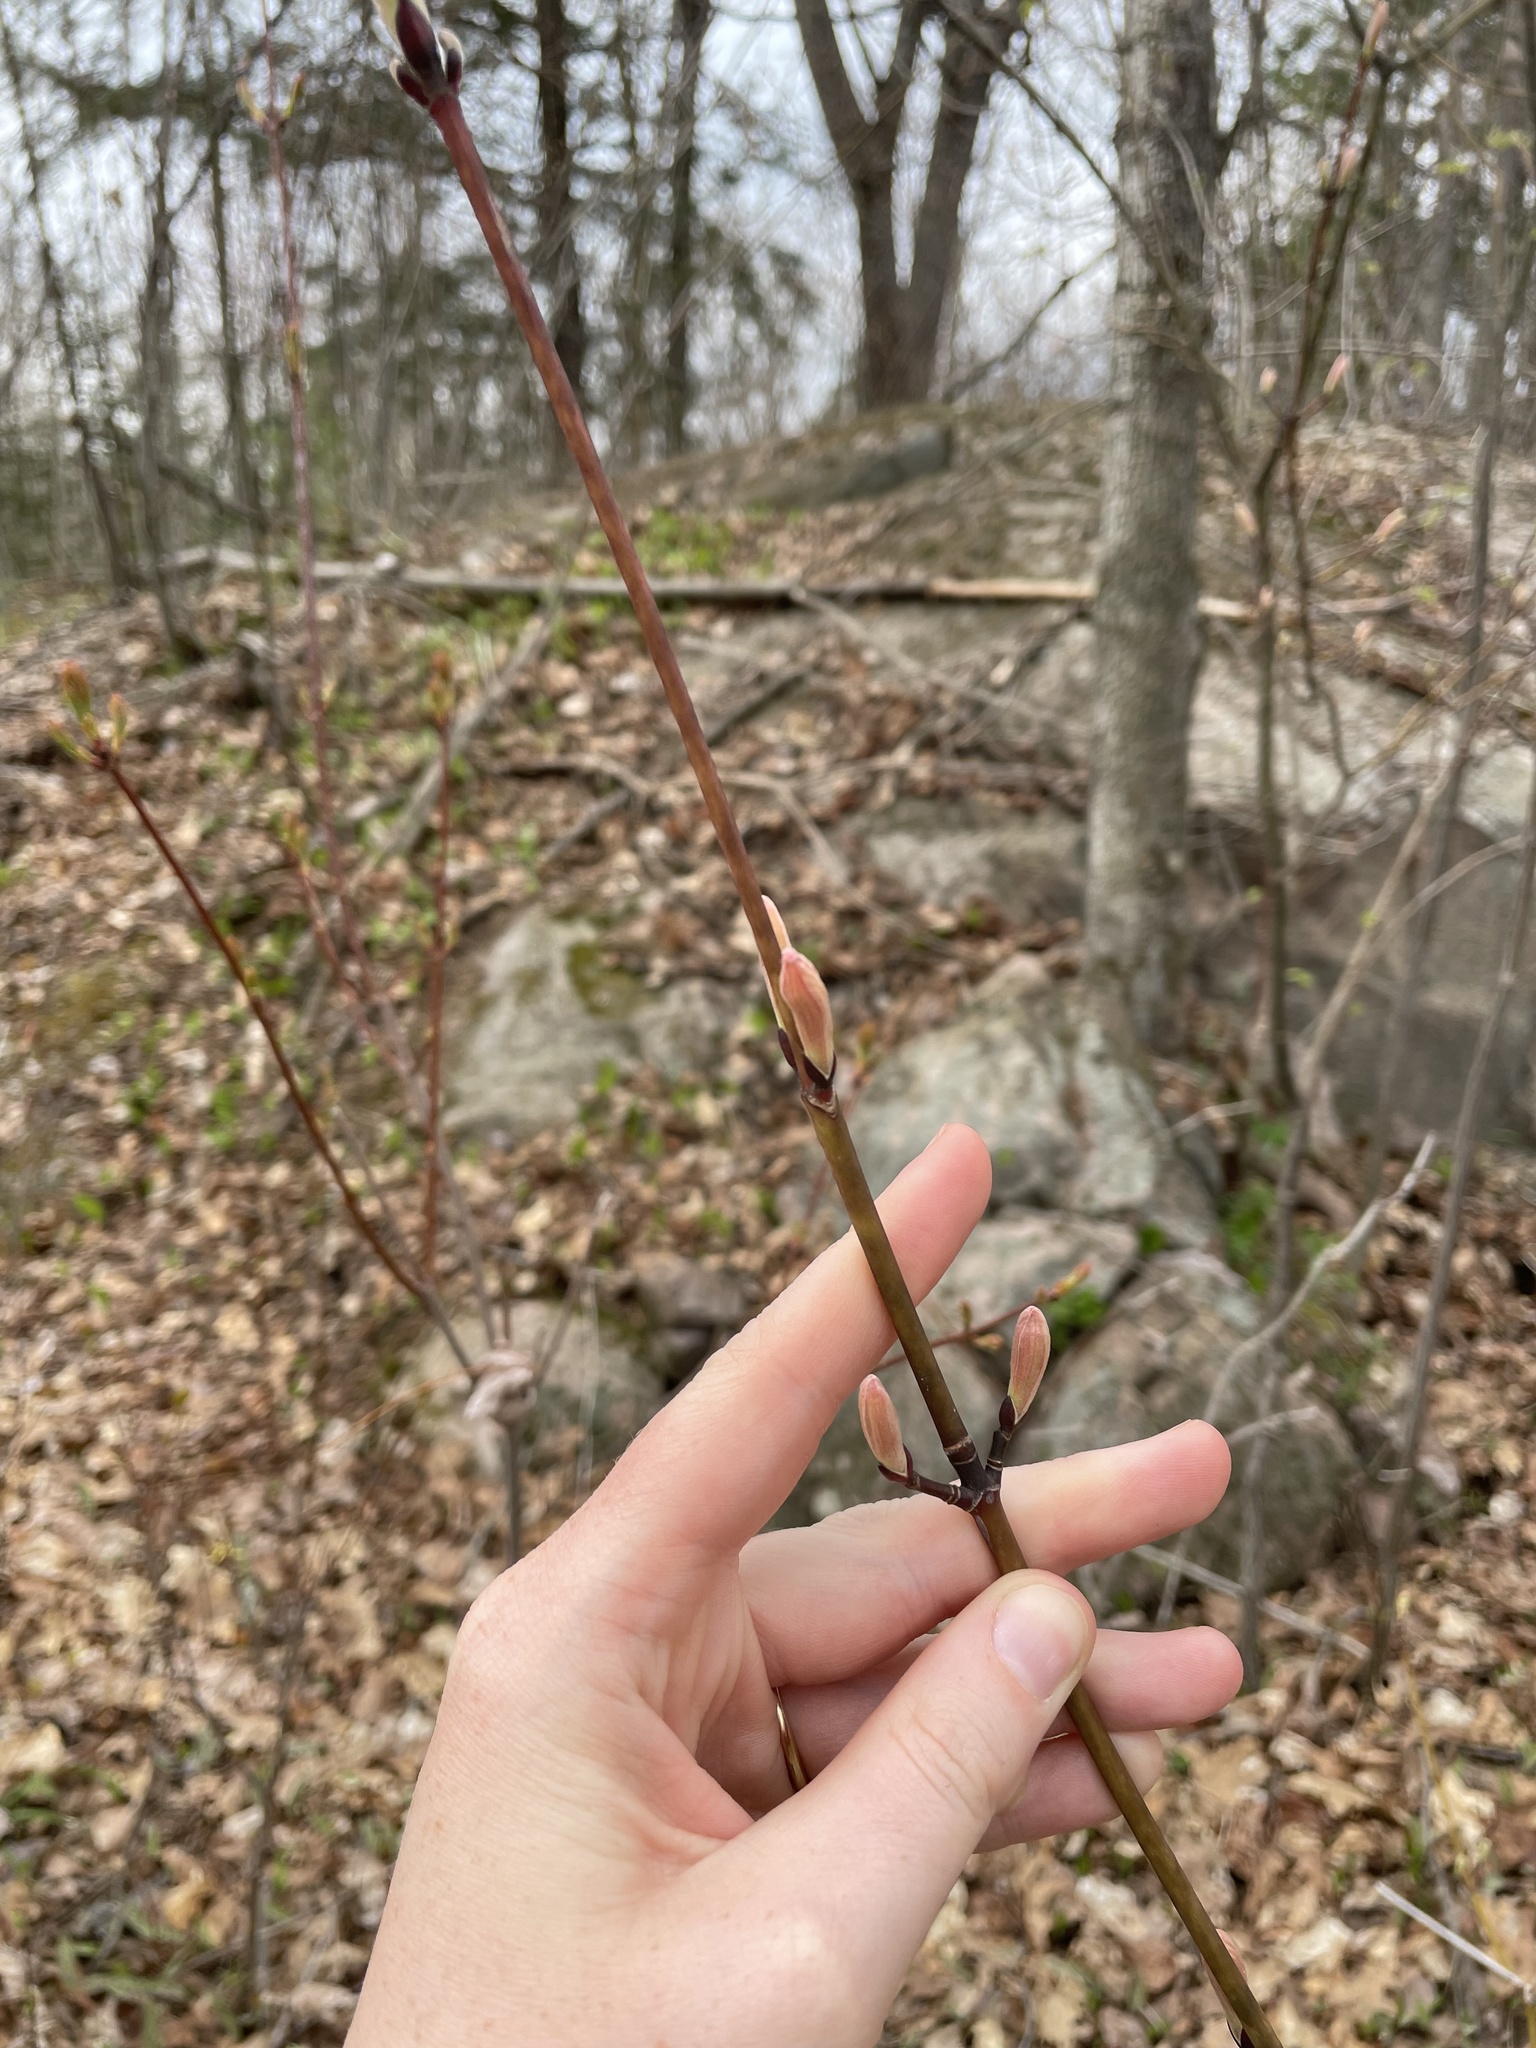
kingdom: Plantae
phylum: Tracheophyta
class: Magnoliopsida
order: Sapindales
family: Sapindaceae
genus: Acer
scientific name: Acer pensylvanicum
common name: Moosewood
